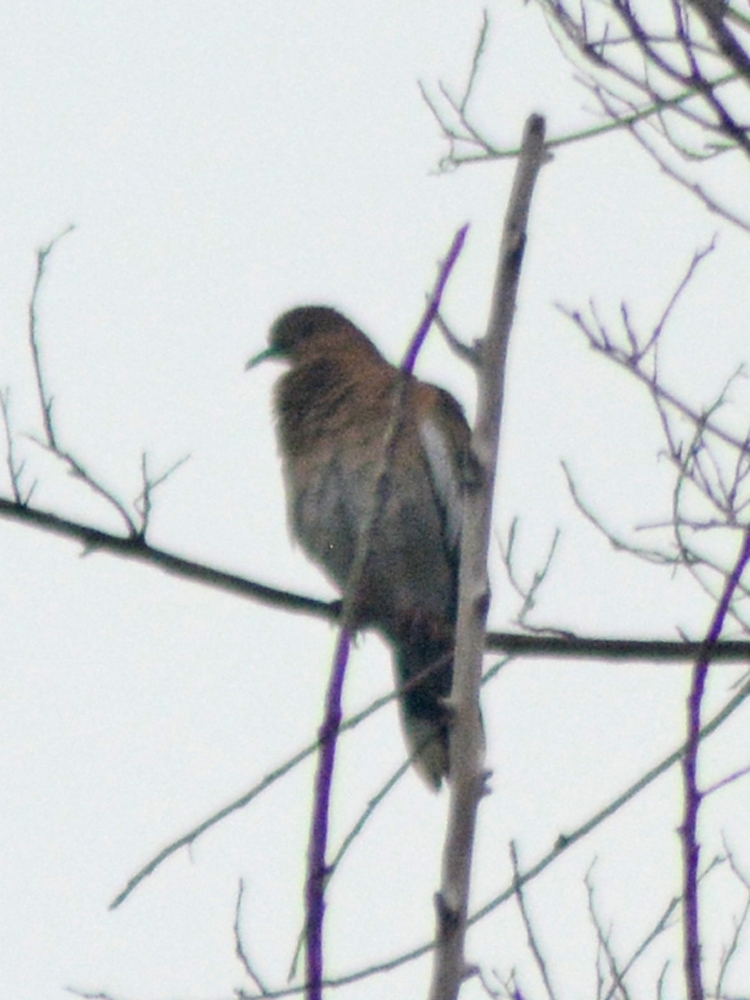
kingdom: Animalia
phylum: Chordata
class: Aves
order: Columbiformes
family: Columbidae
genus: Zenaida
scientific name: Zenaida asiatica
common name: White-winged dove
